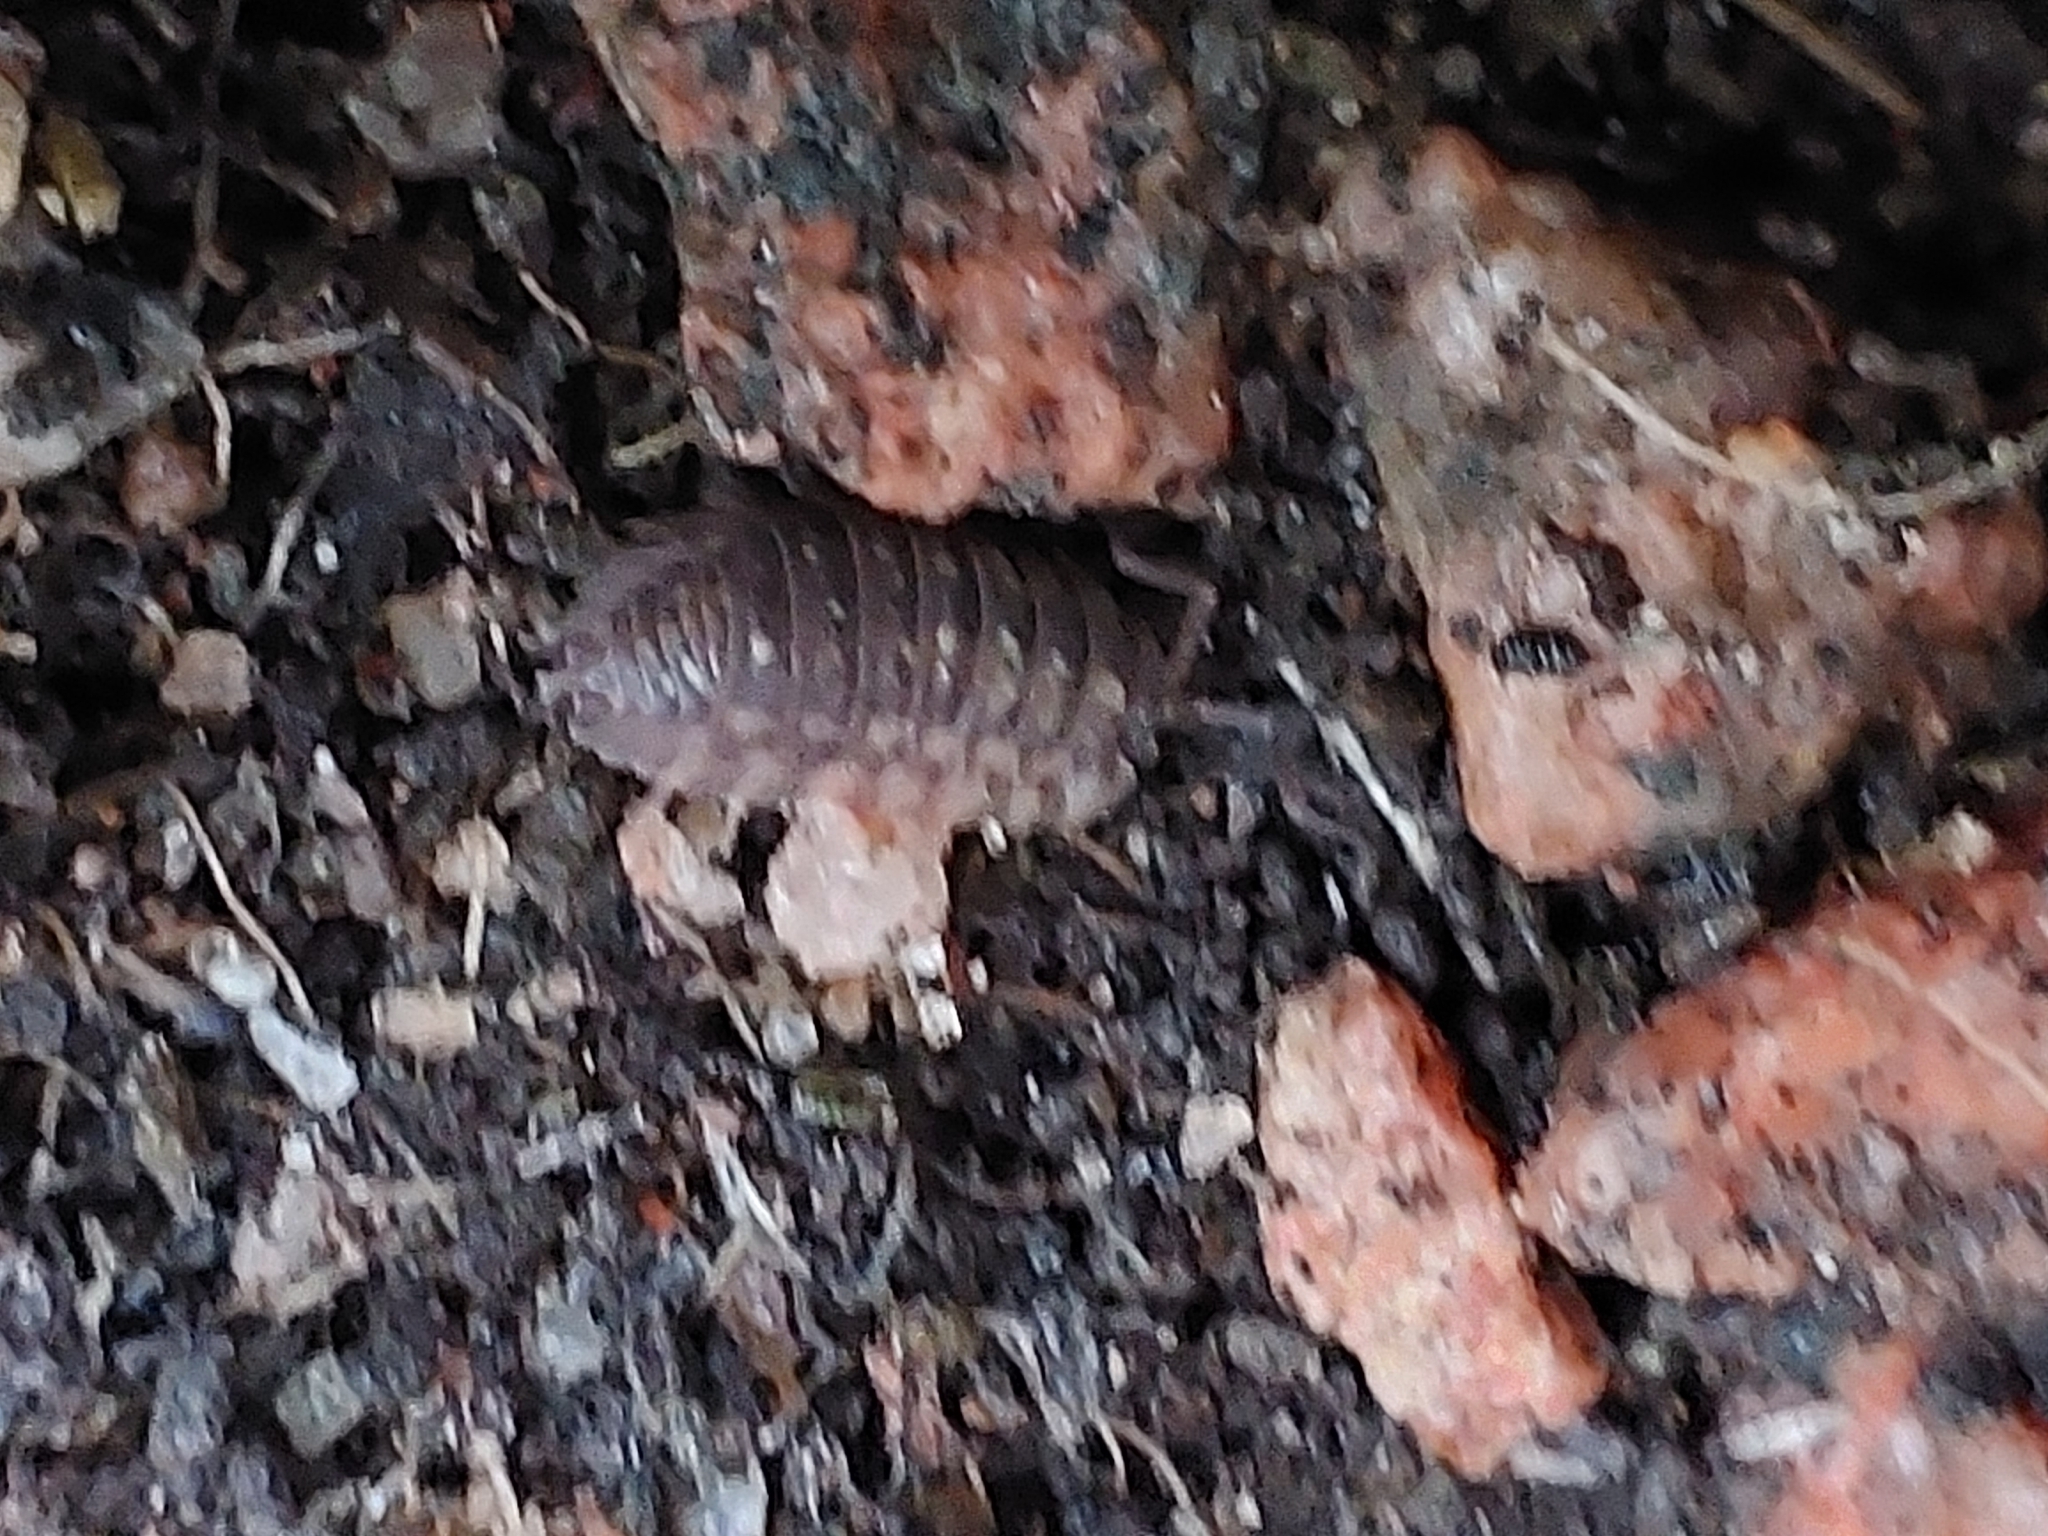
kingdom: Animalia
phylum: Arthropoda
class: Malacostraca
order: Isopoda
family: Oniscidae
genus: Oniscus
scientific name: Oniscus asellus
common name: Common shiny woodlouse
